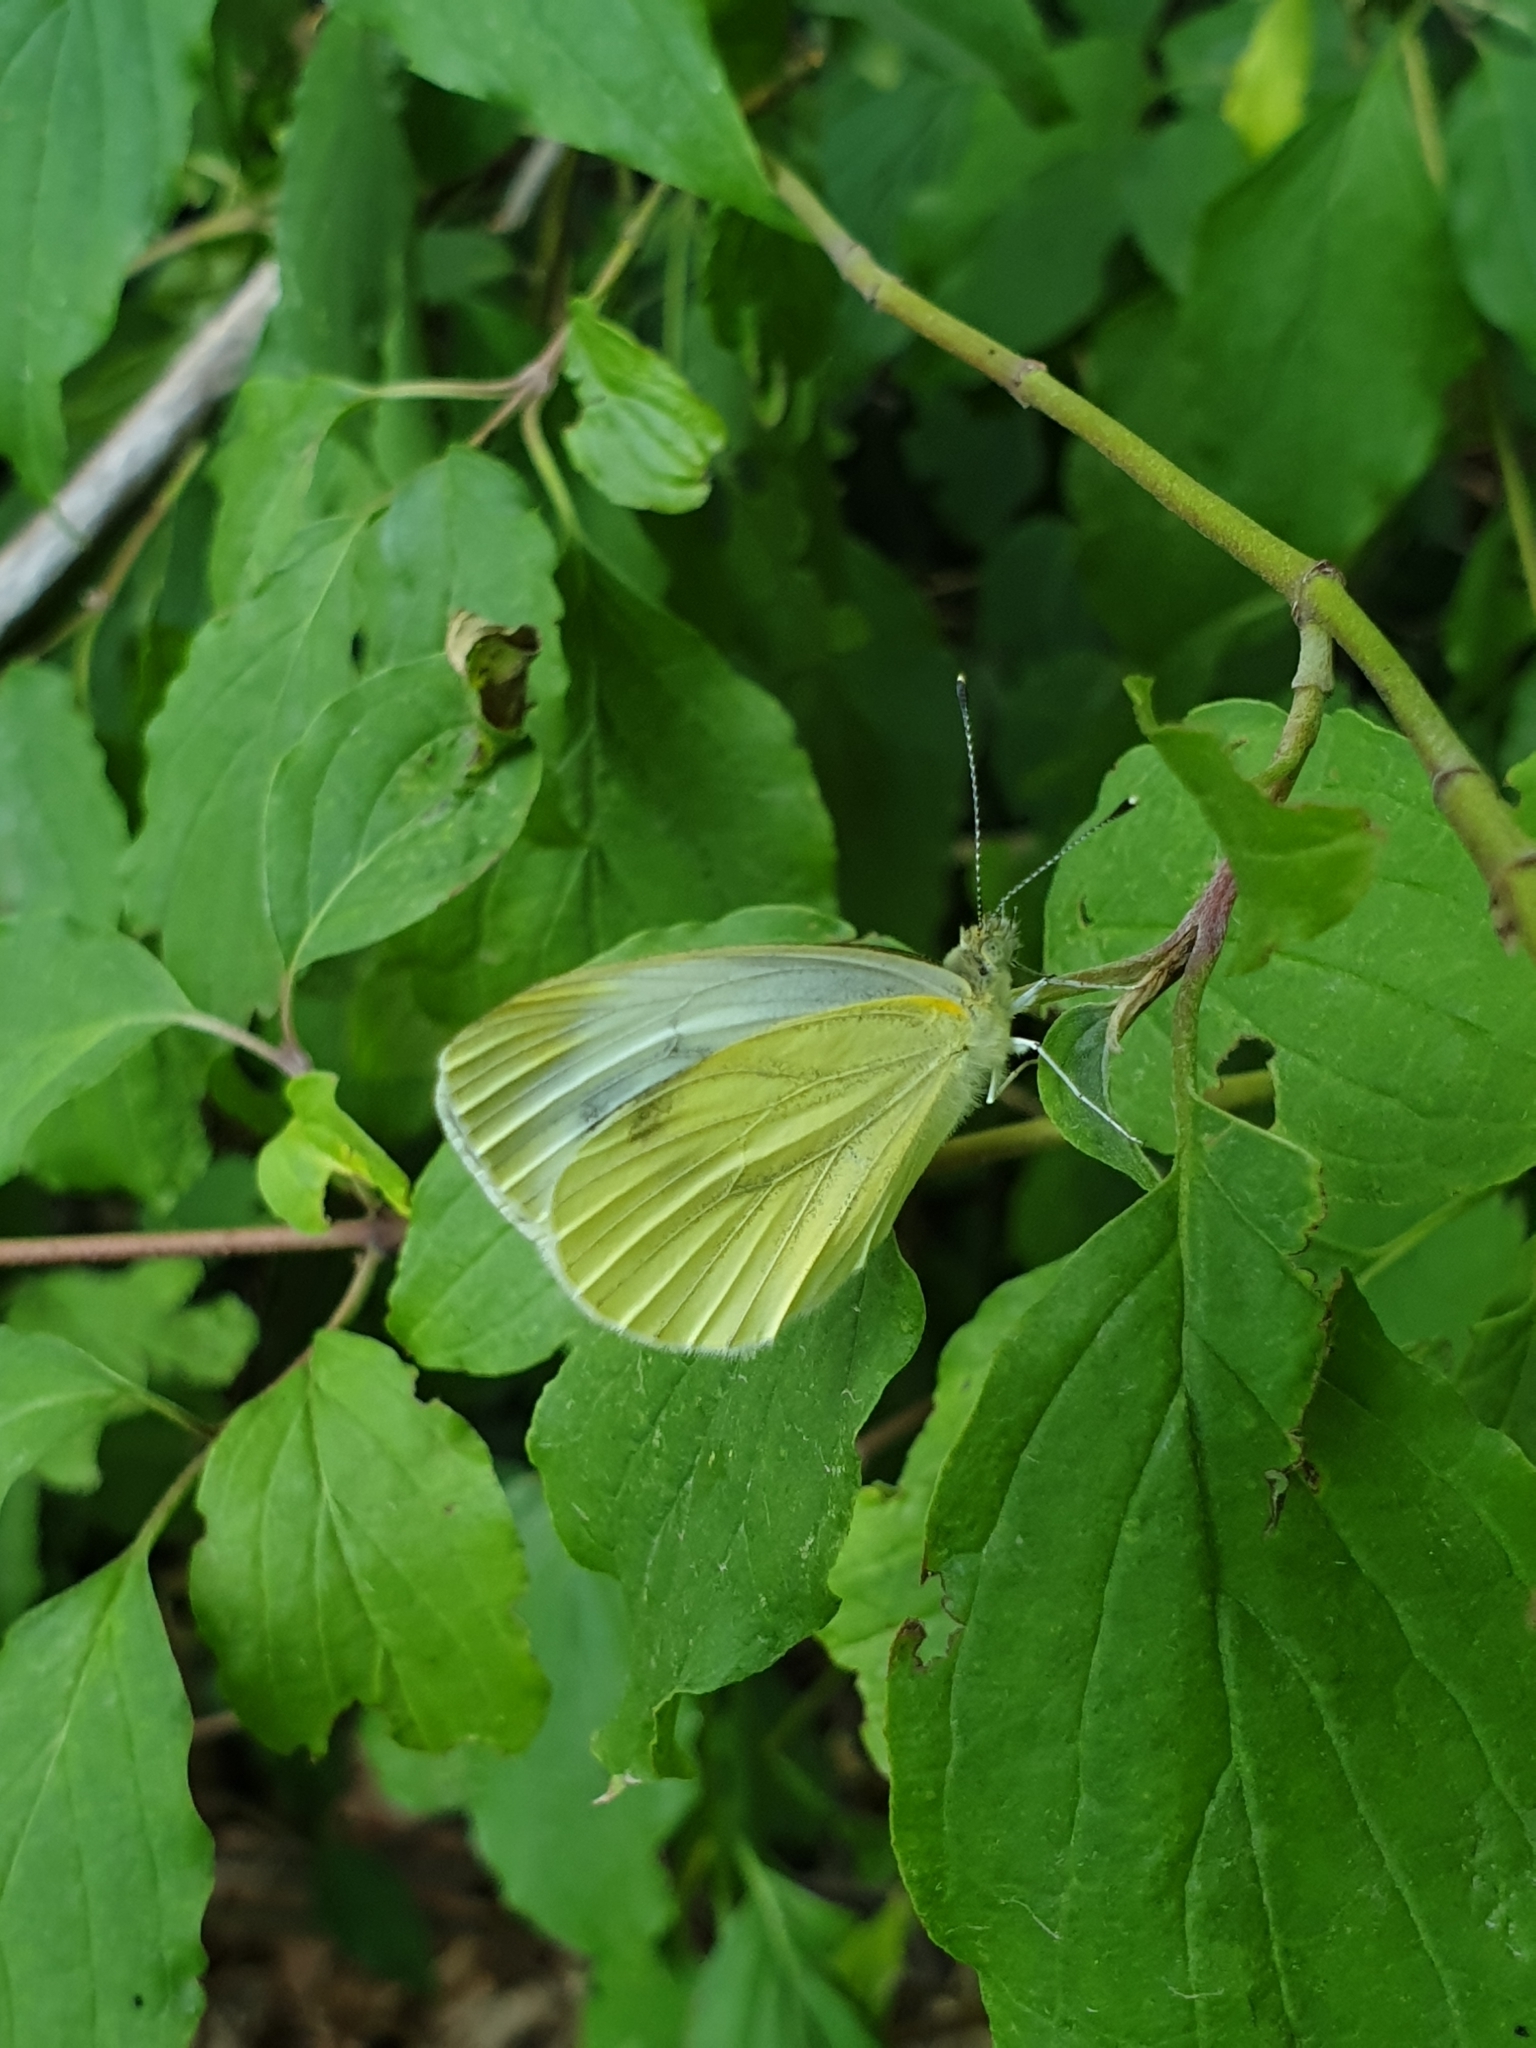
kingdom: Animalia
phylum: Arthropoda
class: Insecta
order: Lepidoptera
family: Pieridae
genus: Pieris
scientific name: Pieris napi
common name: Green-veined white
